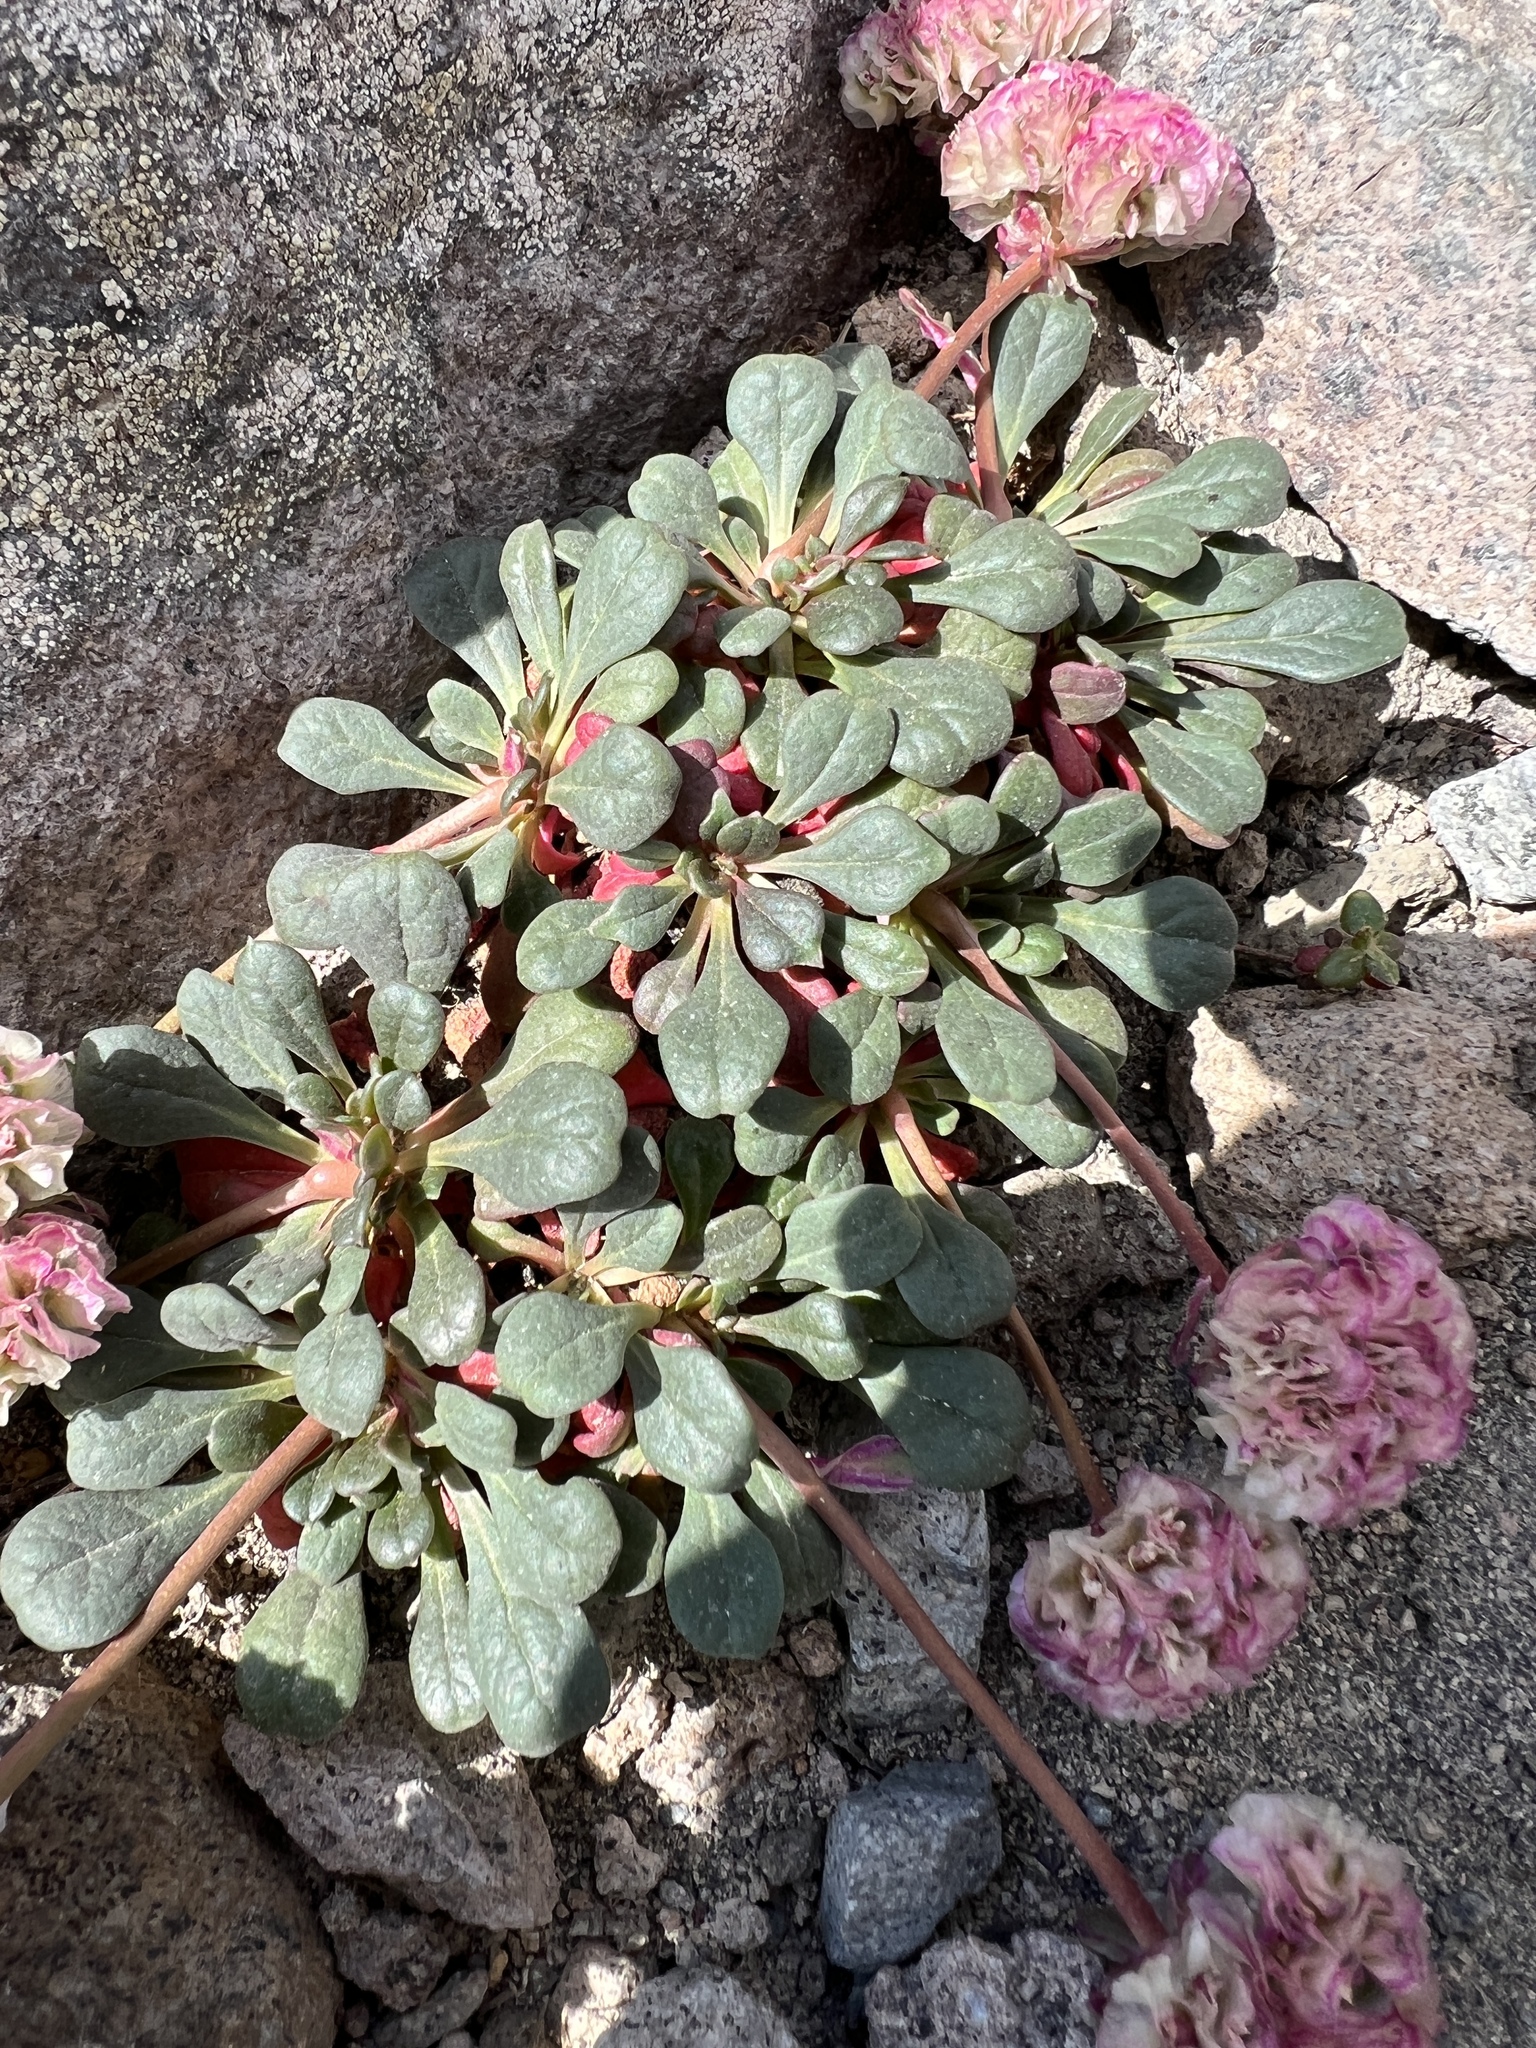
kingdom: Plantae
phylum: Tracheophyta
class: Magnoliopsida
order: Caryophyllales
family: Montiaceae
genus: Calyptridium
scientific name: Calyptridium umbellatum
